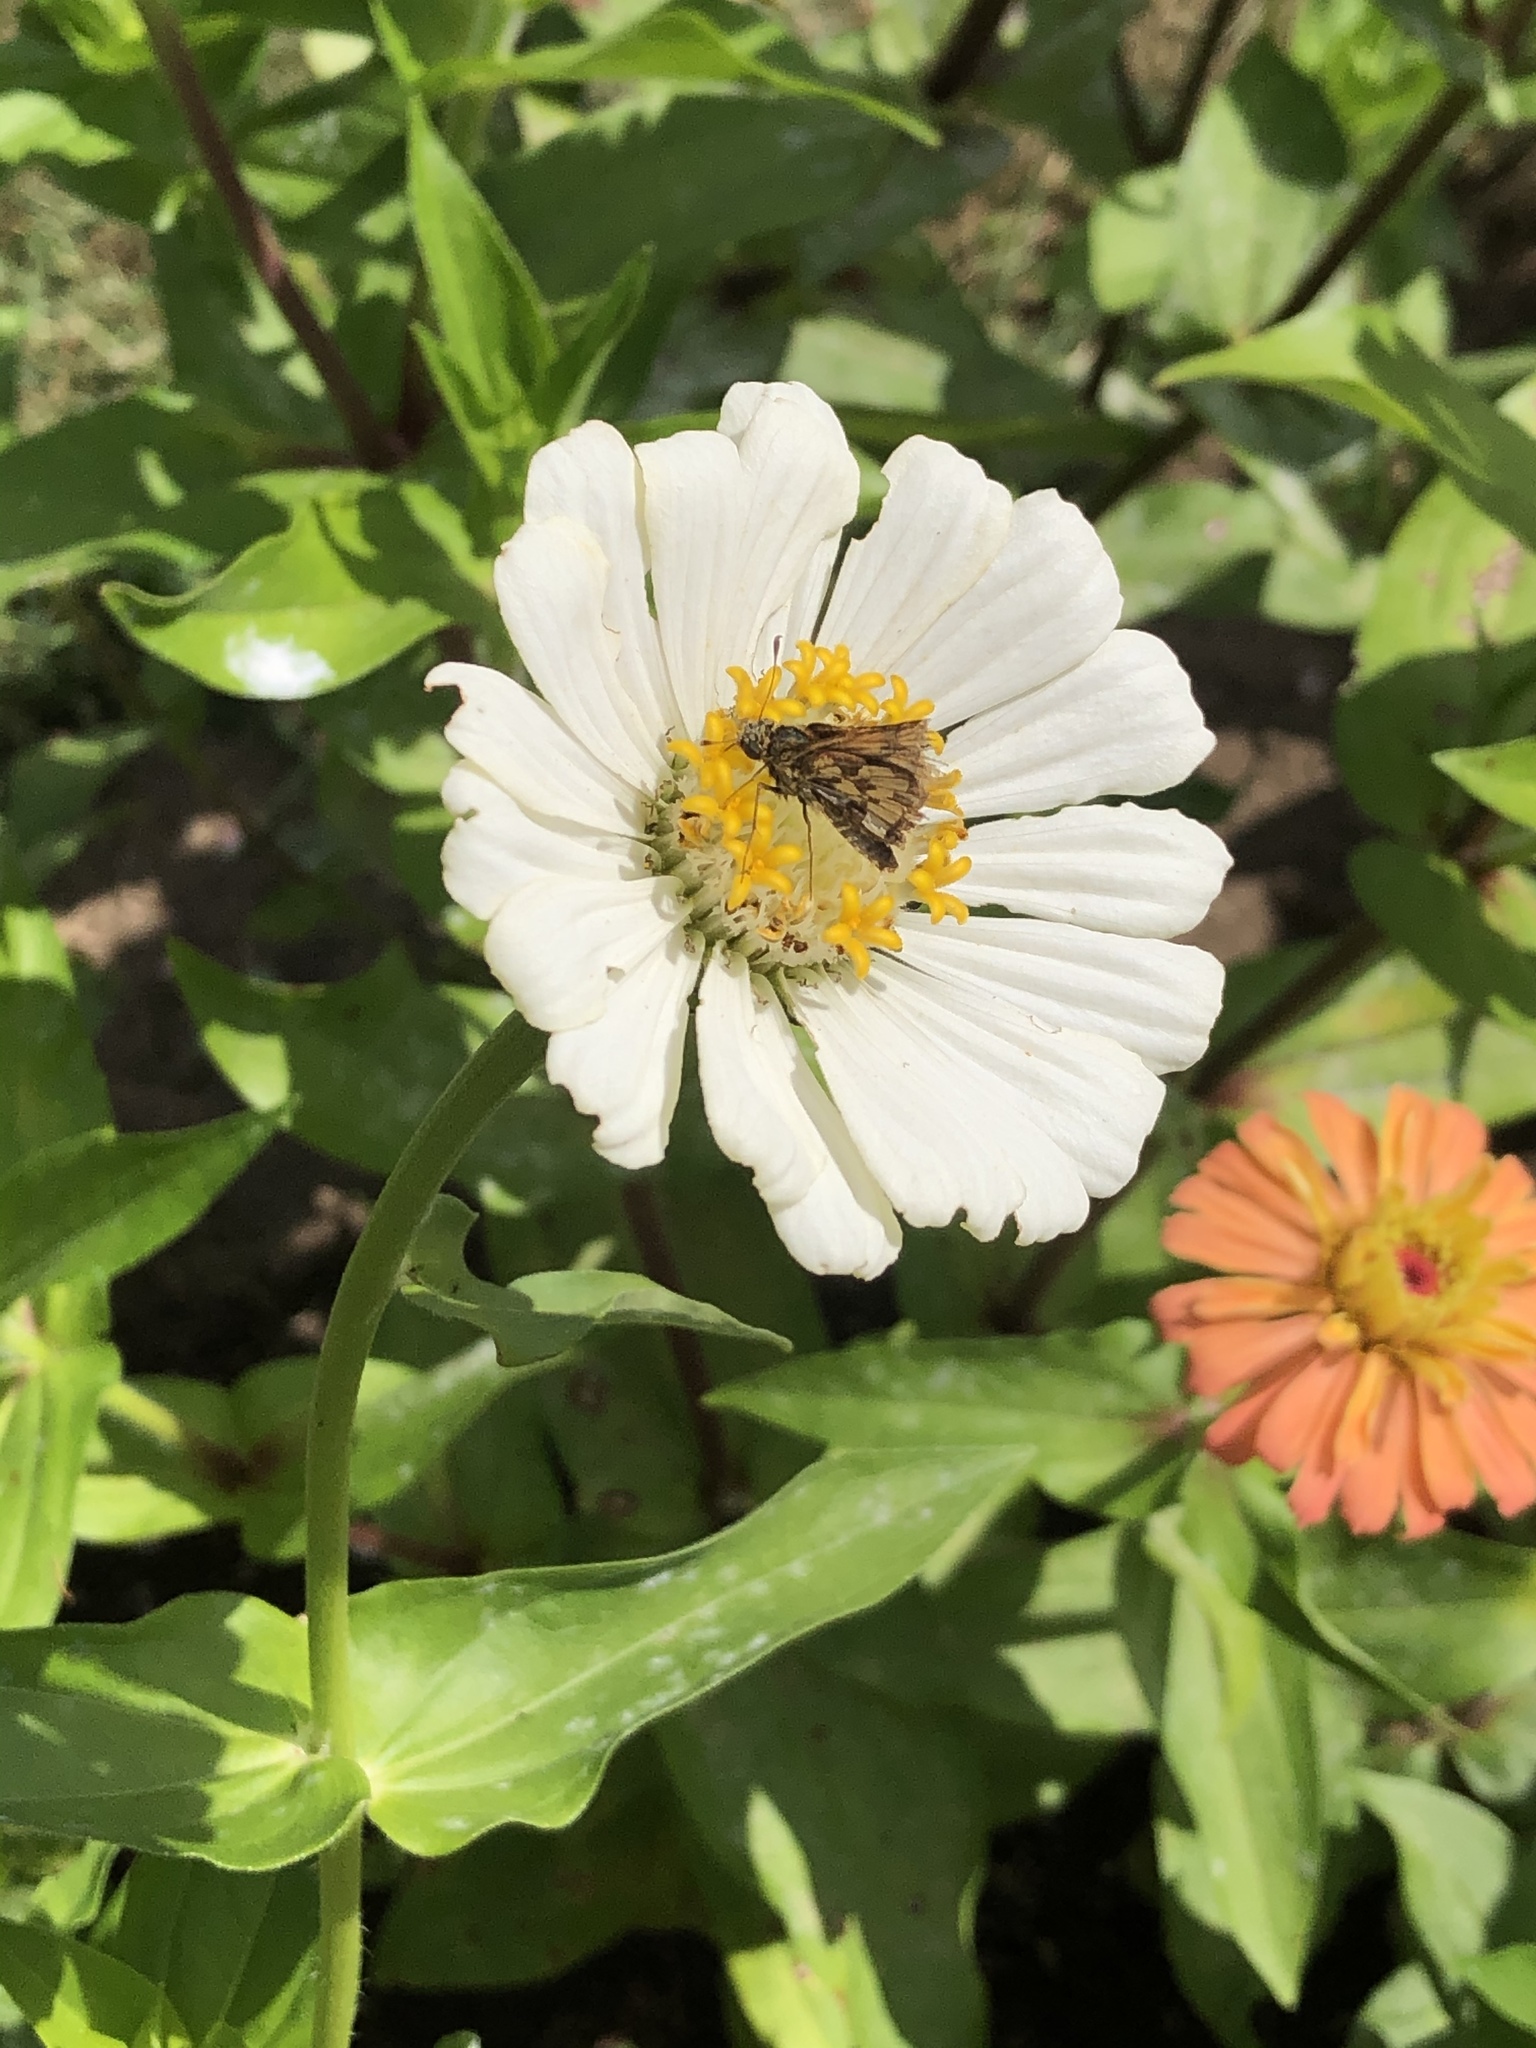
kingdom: Animalia
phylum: Arthropoda
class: Insecta
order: Lepidoptera
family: Hesperiidae
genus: Polites
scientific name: Polites coras
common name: Peck's skipper
